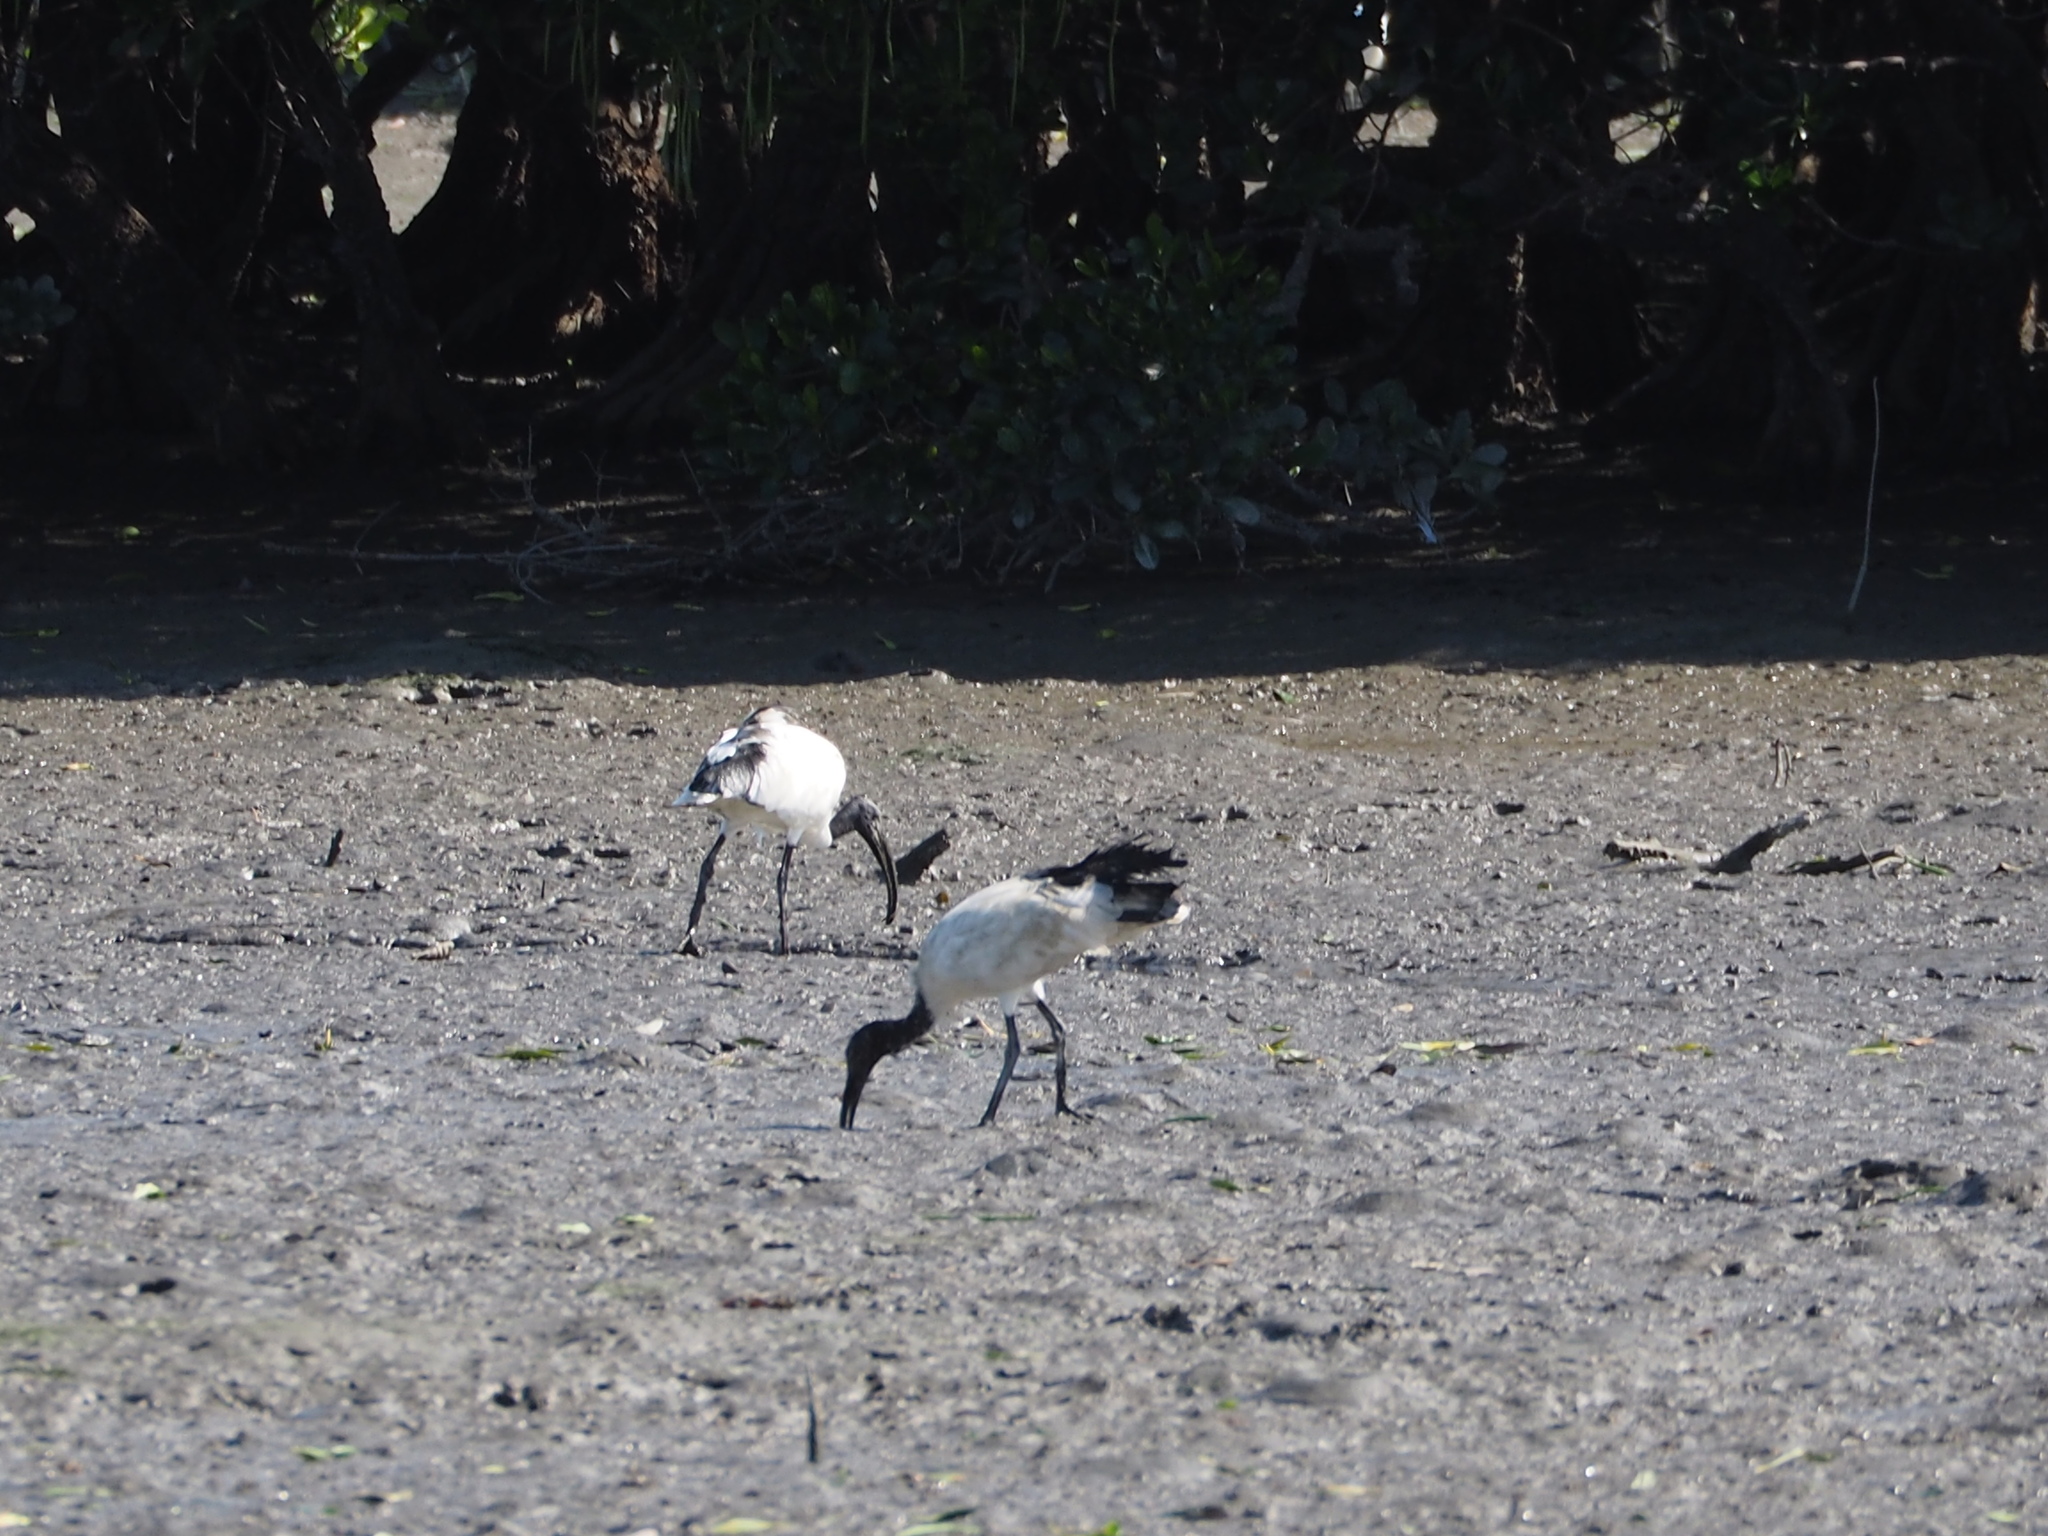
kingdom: Animalia
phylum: Chordata
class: Aves
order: Pelecaniformes
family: Threskiornithidae
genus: Threskiornis
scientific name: Threskiornis aethiopicus
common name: Sacred ibis
